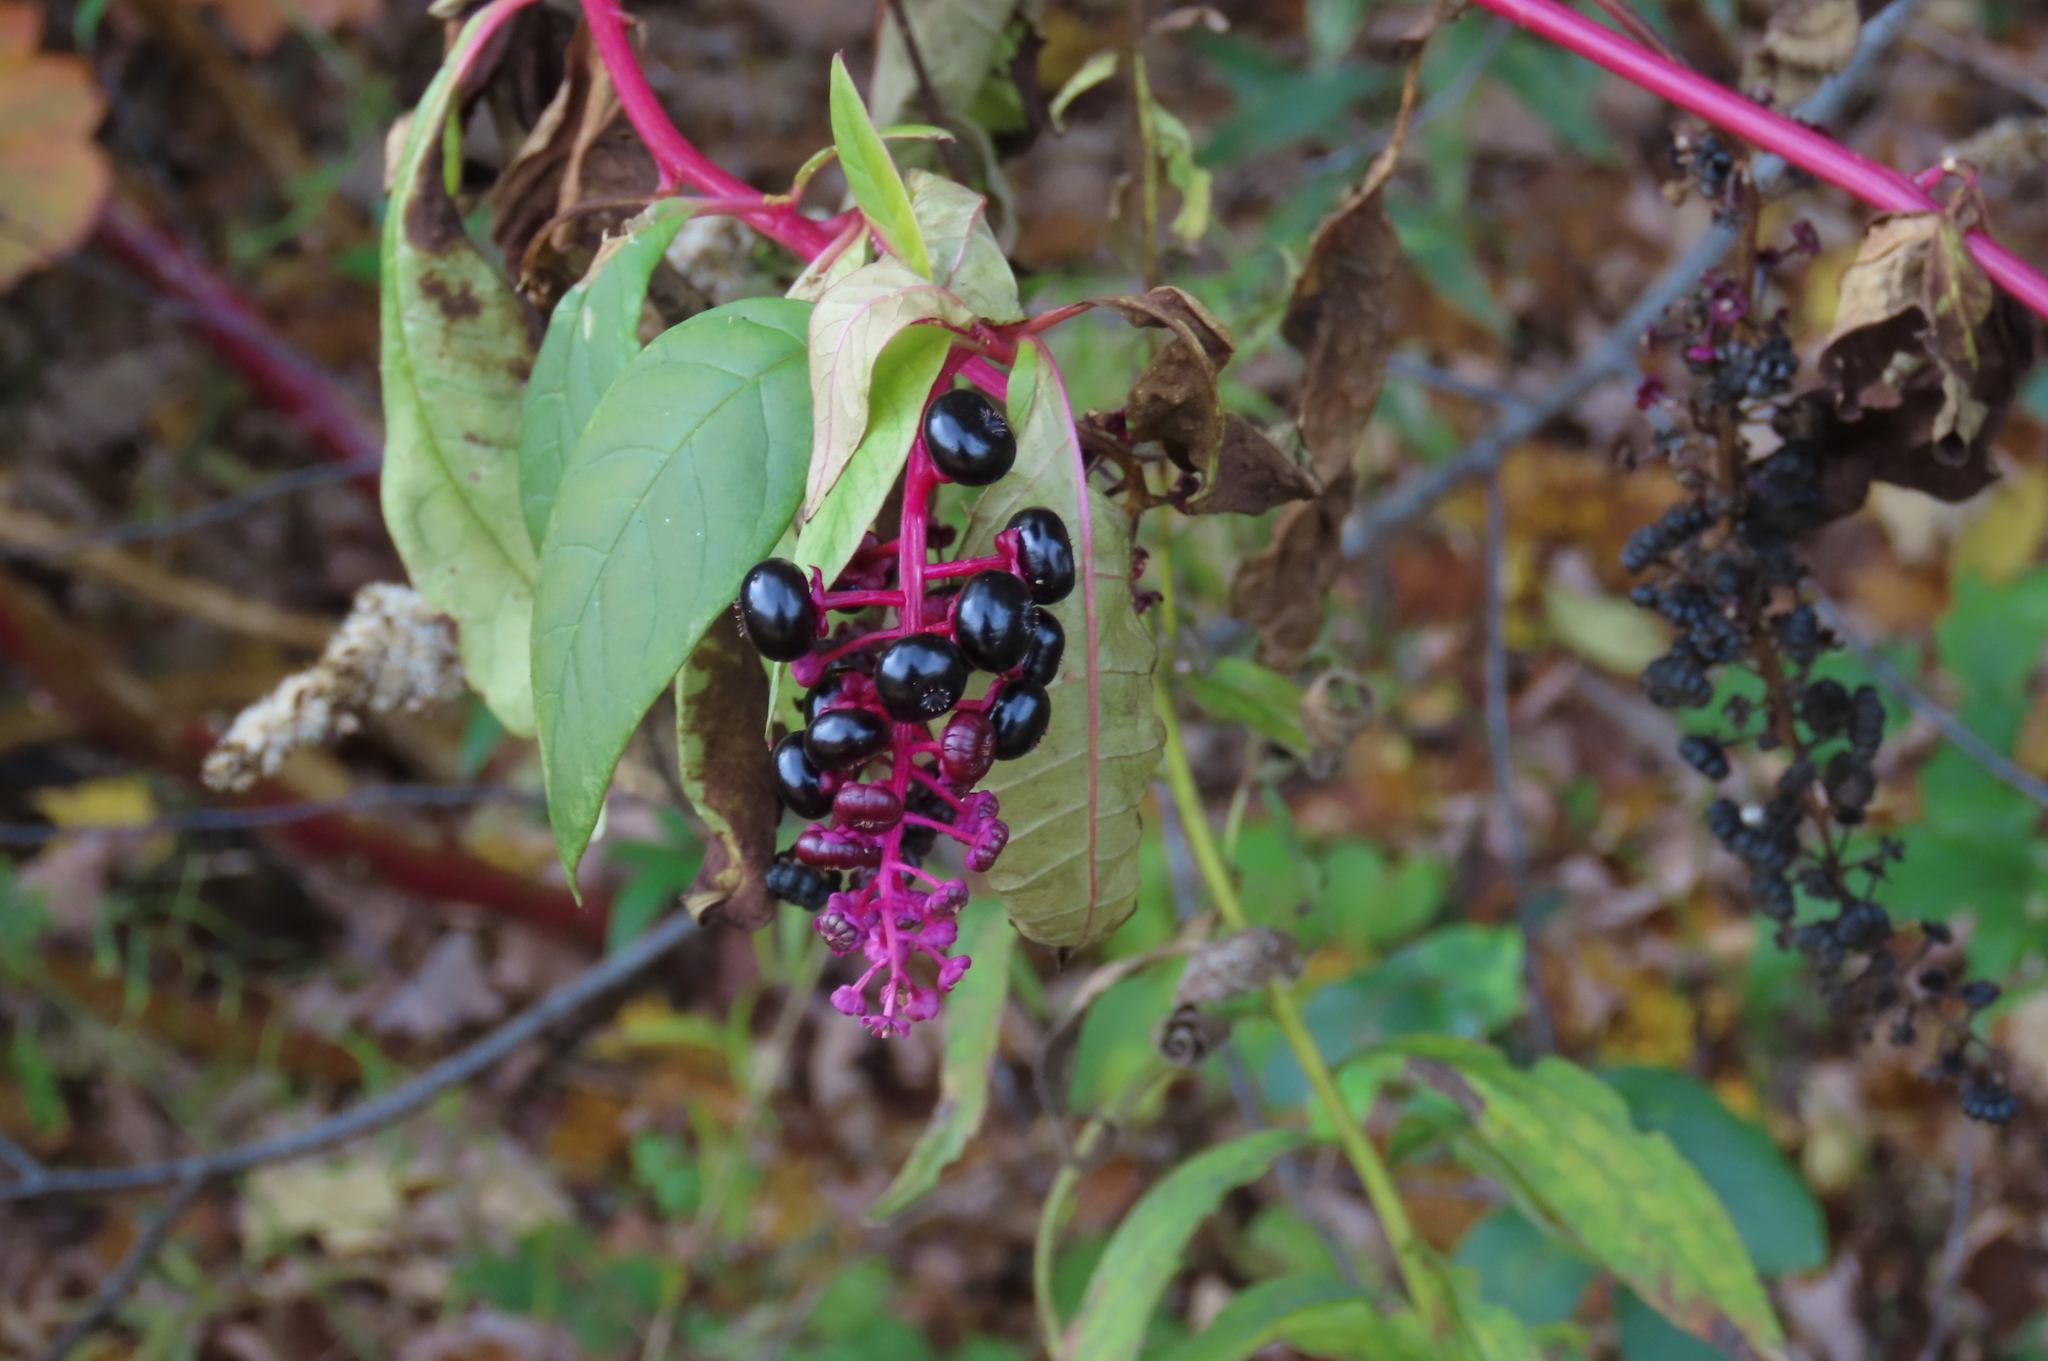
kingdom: Plantae
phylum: Tracheophyta
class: Magnoliopsida
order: Caryophyllales
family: Phytolaccaceae
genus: Phytolacca
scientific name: Phytolacca americana
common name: American pokeweed
